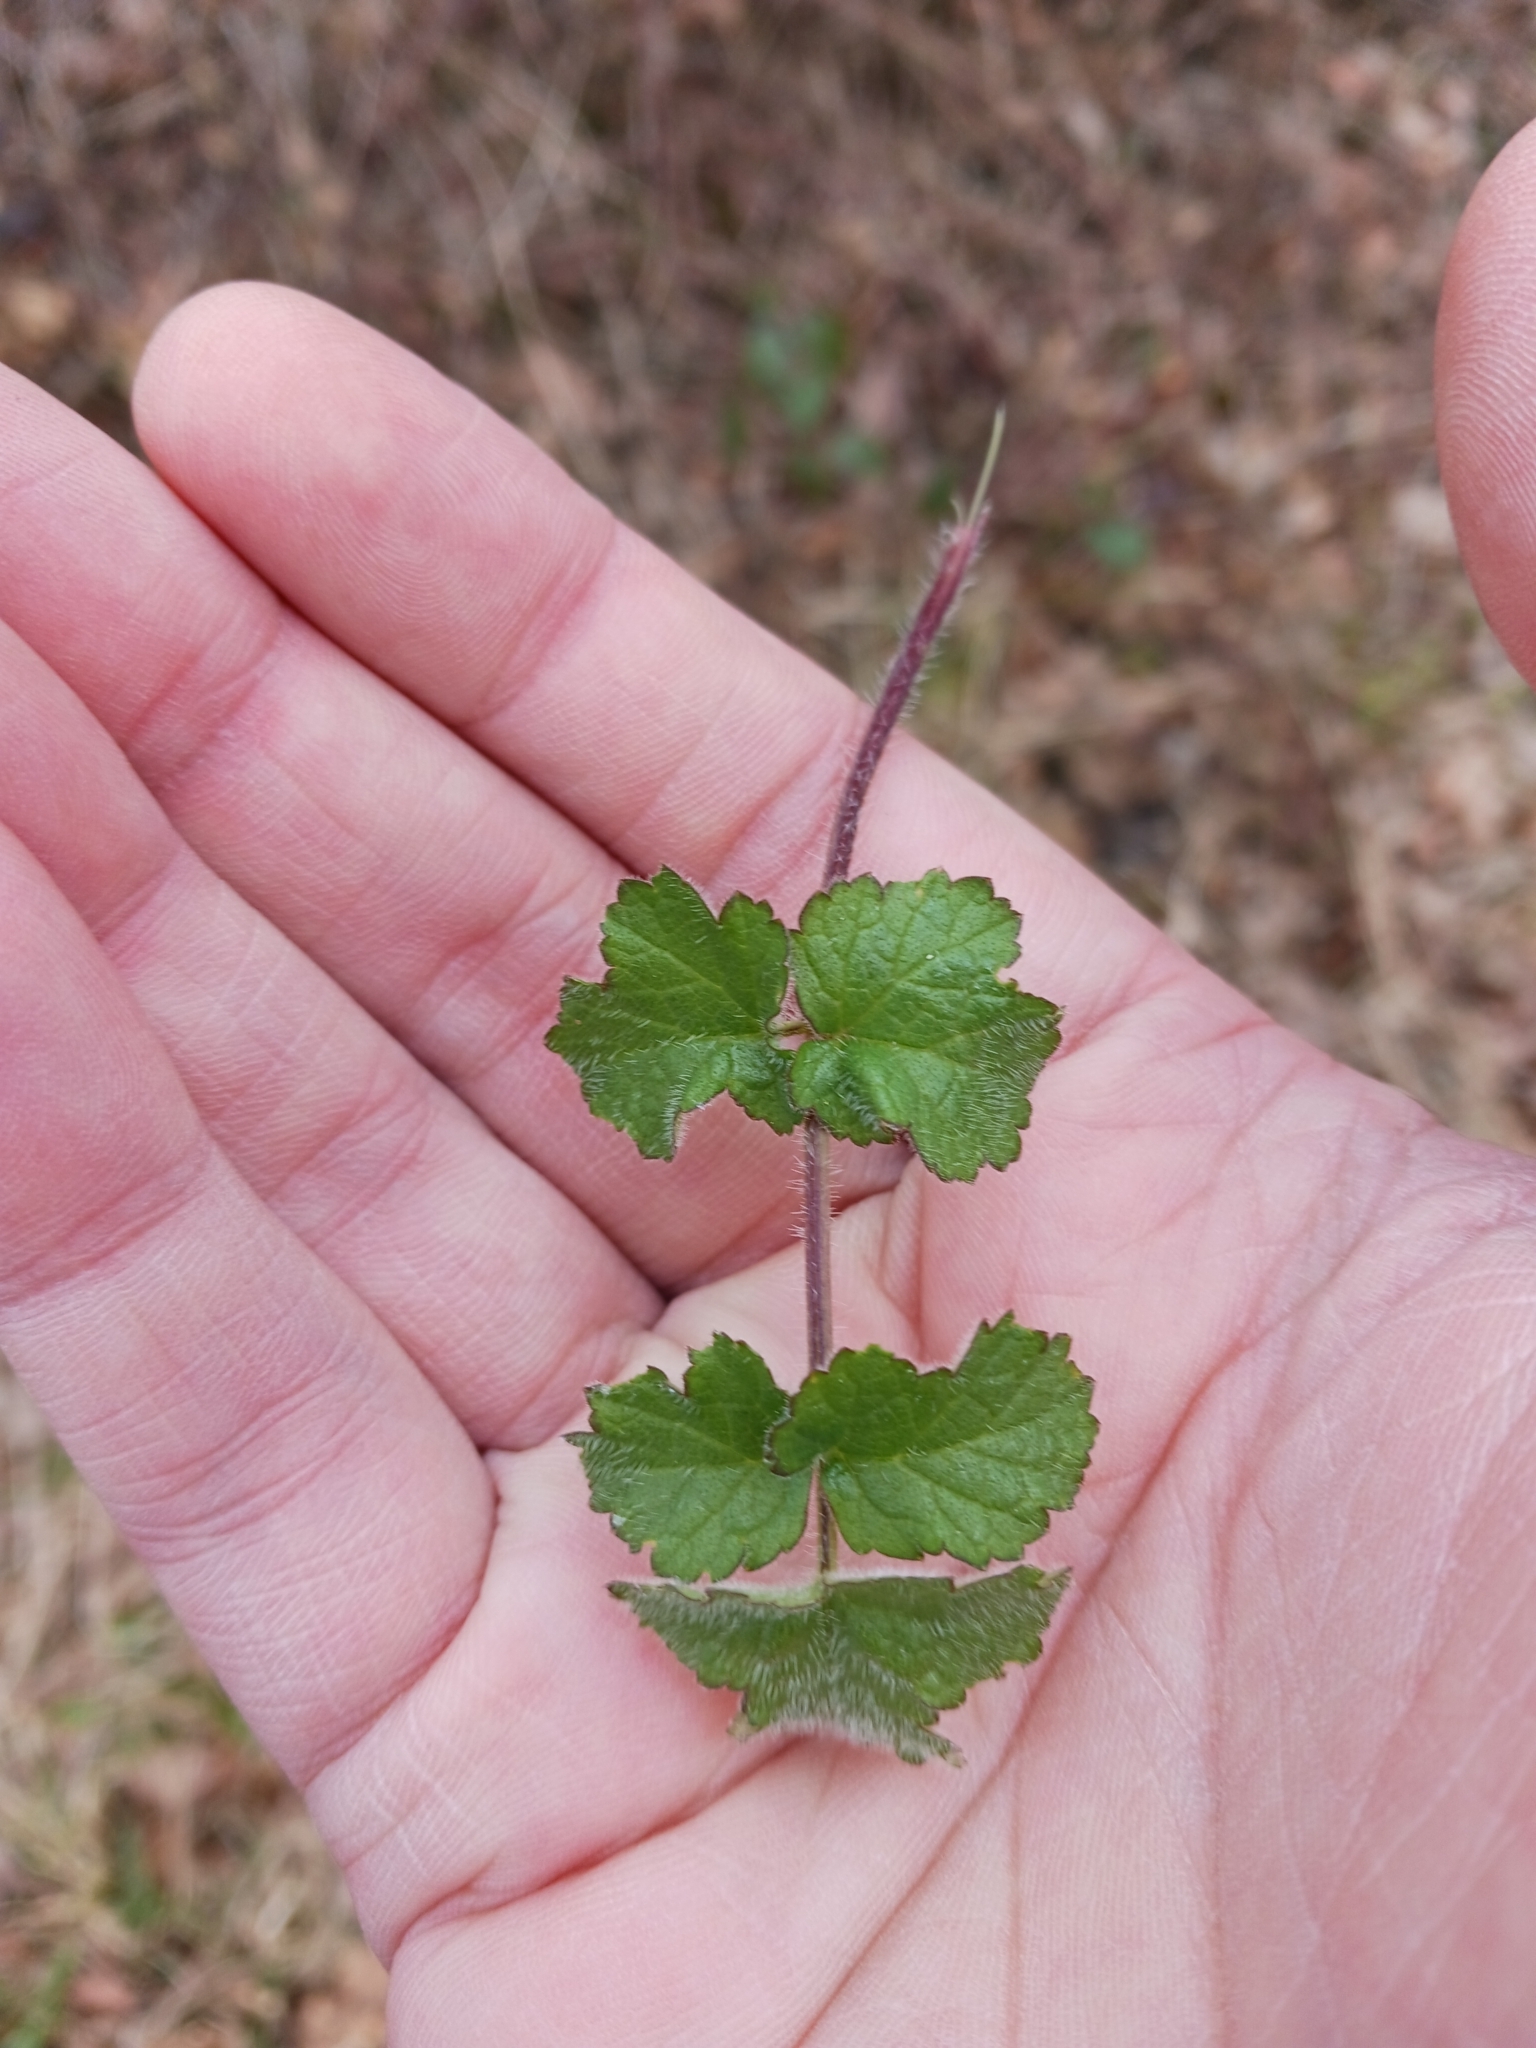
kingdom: Plantae
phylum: Tracheophyta
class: Magnoliopsida
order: Apiales
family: Apiaceae
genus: Heracleum
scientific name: Heracleum sphondylium
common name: Hogweed
